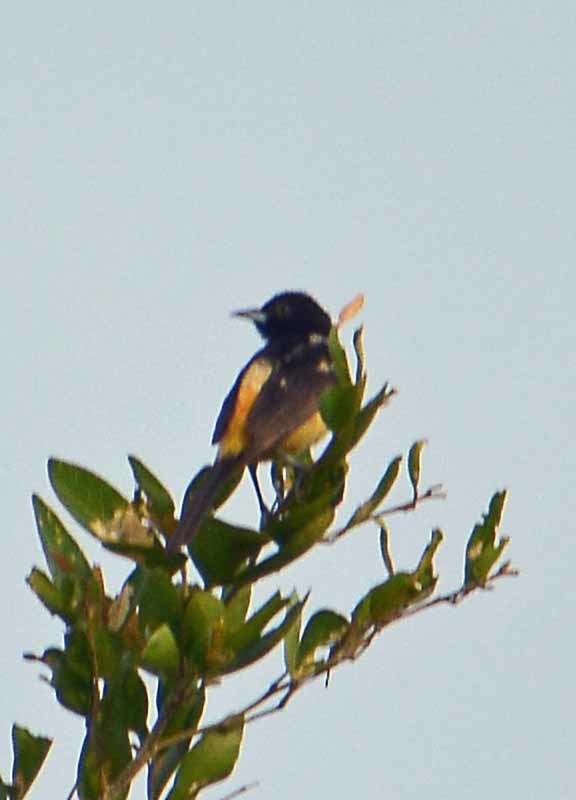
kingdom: Animalia
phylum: Chordata
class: Aves
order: Passeriformes
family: Icteridae
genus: Icterus
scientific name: Icterus spurius
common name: Orchard oriole
